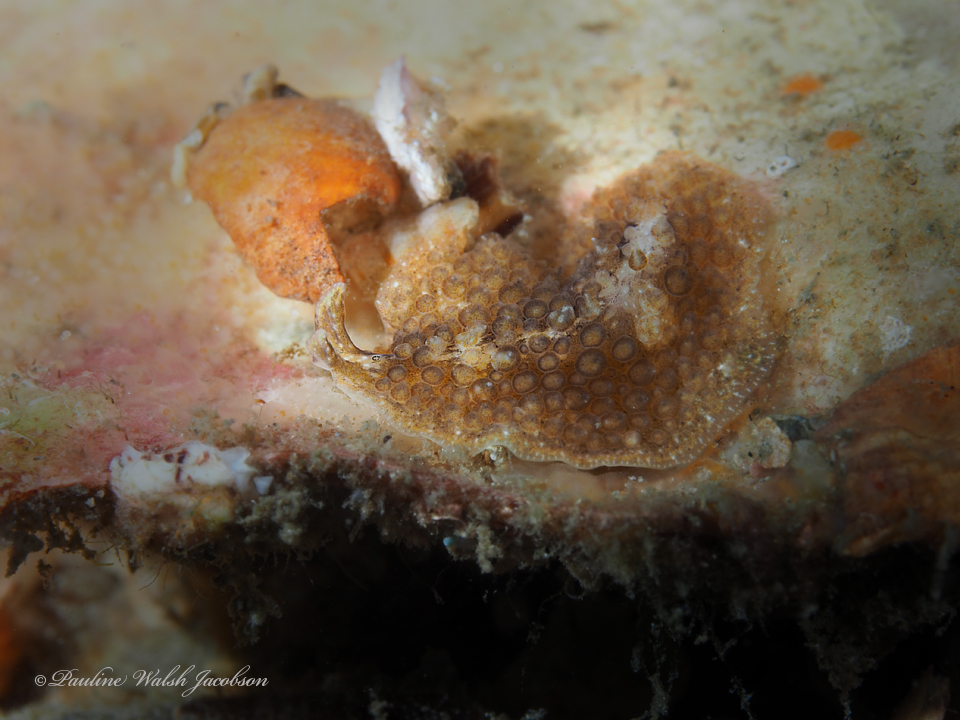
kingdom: Animalia
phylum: Platyhelminthes
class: Turbellaria
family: Pseudocerotidae
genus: Thysanozoon
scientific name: Thysanozoon brocchii
